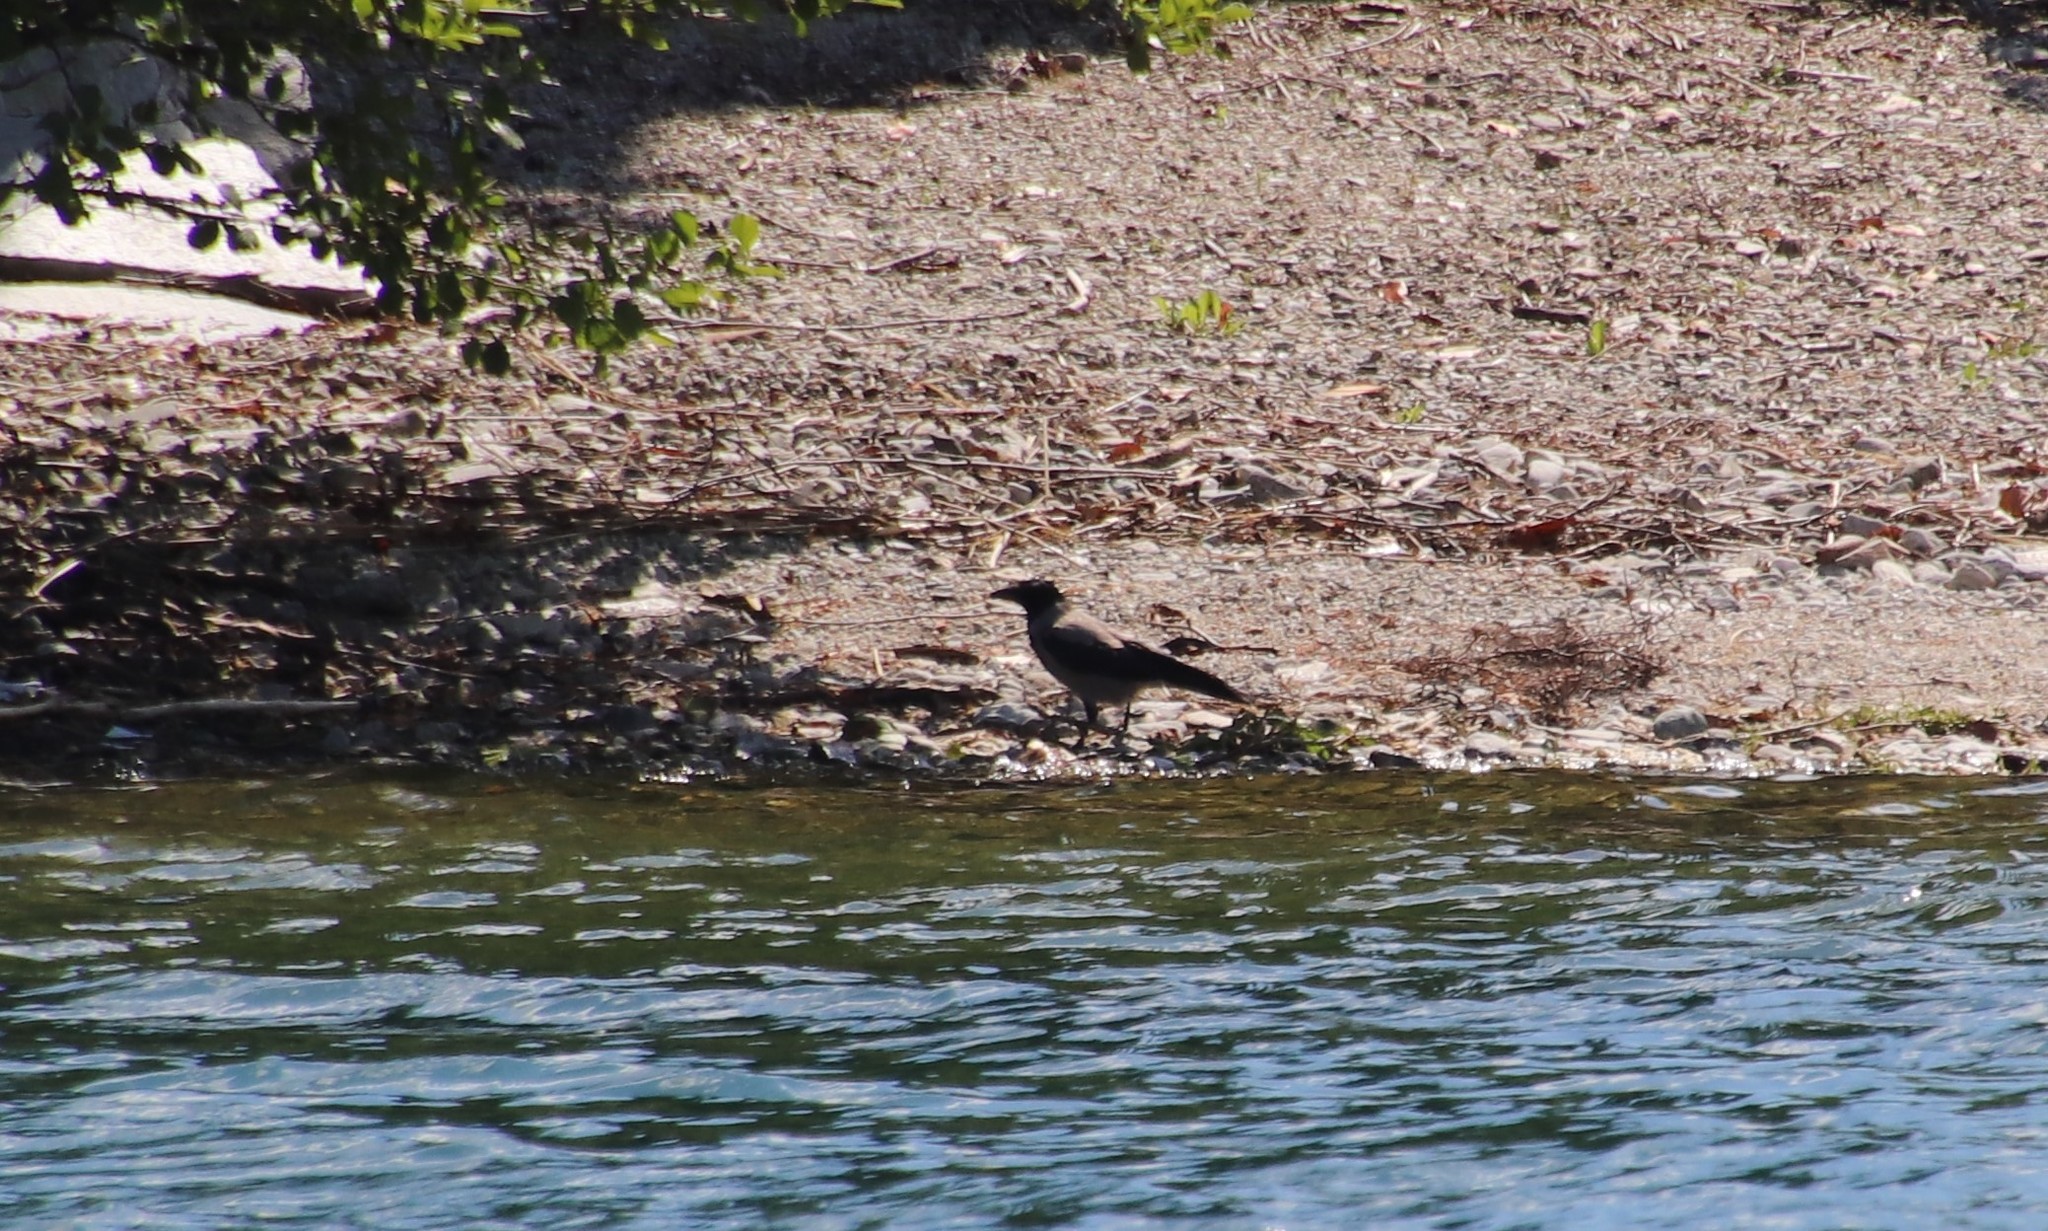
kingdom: Animalia
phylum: Chordata
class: Aves
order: Passeriformes
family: Corvidae
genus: Corvus
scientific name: Corvus cornix
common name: Hooded crow
